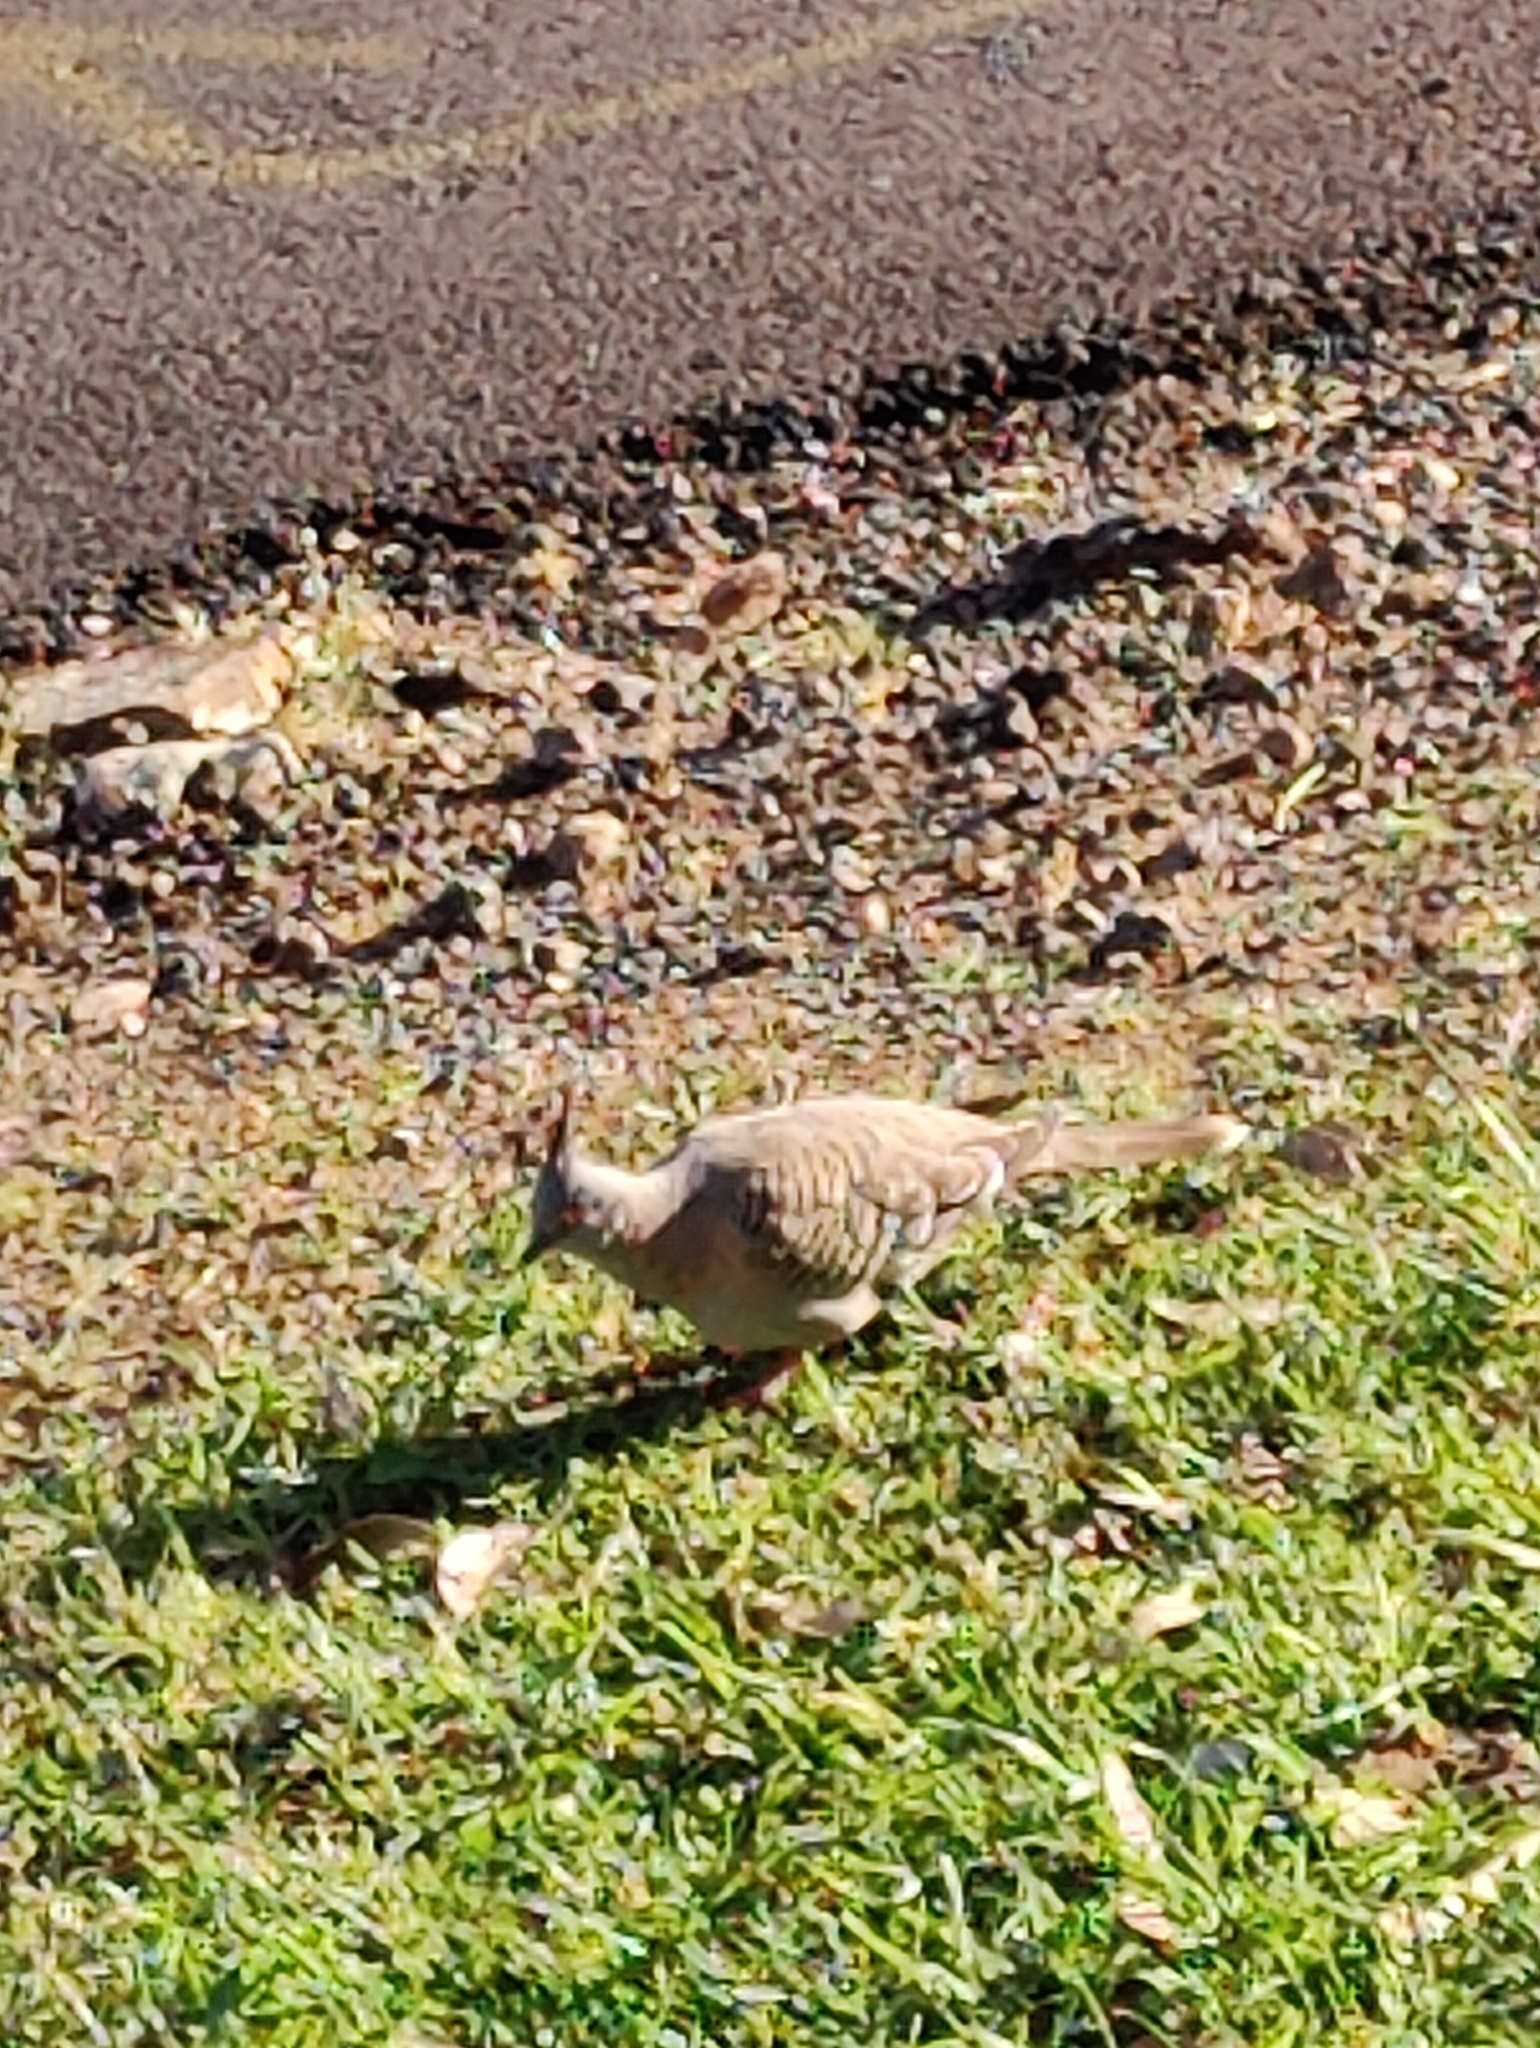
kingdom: Animalia
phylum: Chordata
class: Aves
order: Columbiformes
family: Columbidae
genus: Ocyphaps
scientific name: Ocyphaps lophotes
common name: Crested pigeon
